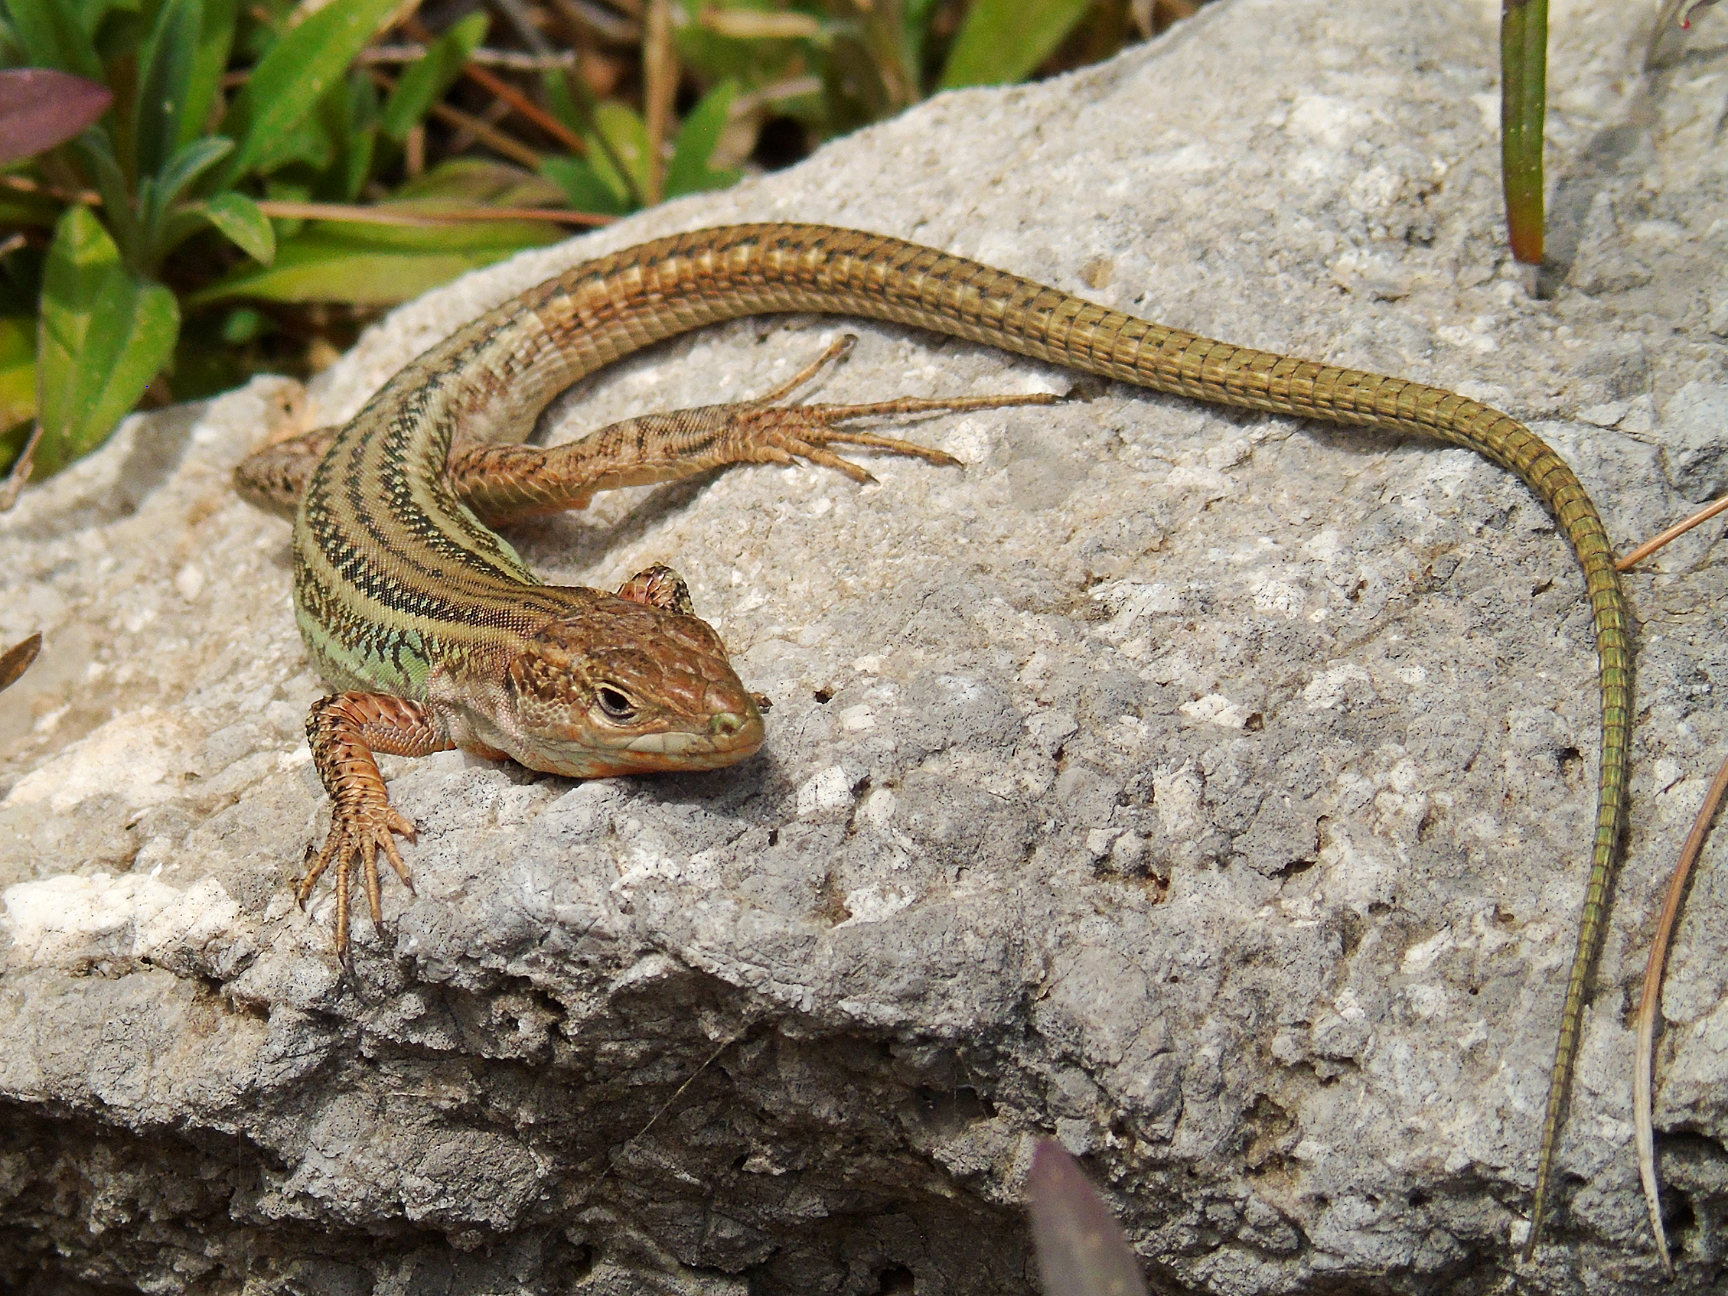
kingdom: Animalia
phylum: Chordata
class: Squamata
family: Lacertidae
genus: Podarcis
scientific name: Podarcis peloponnesiacus
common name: Peloponnese wall lizard
